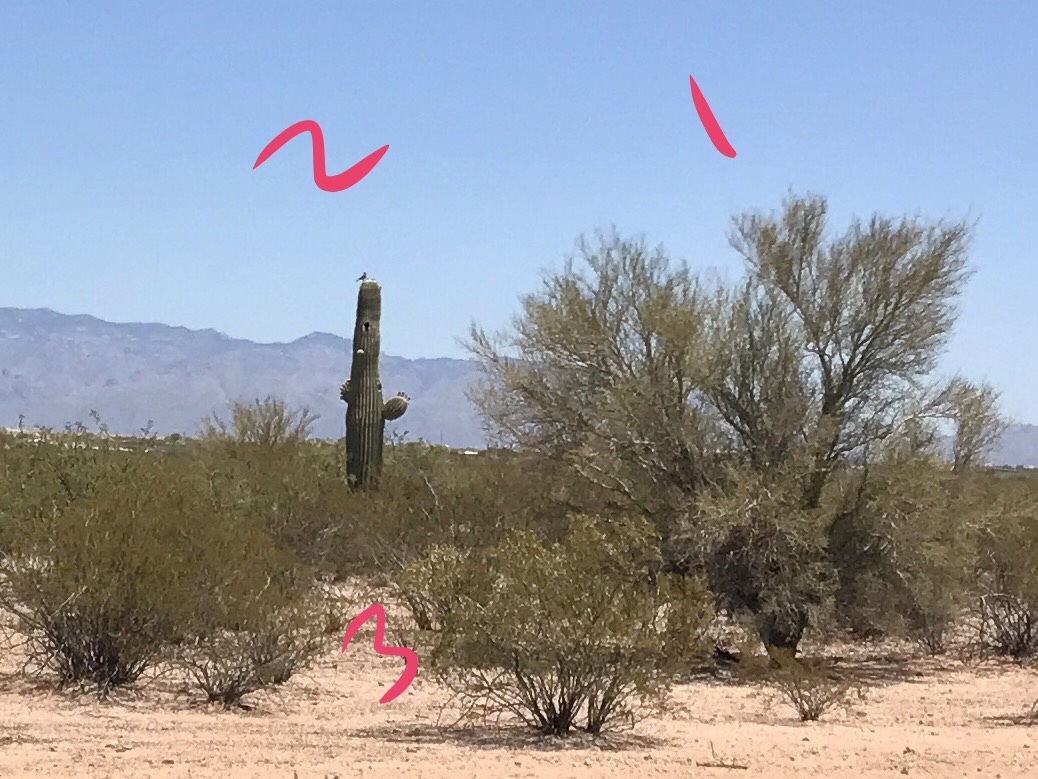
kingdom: Plantae
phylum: Tracheophyta
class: Magnoliopsida
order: Zygophyllales
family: Zygophyllaceae
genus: Larrea
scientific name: Larrea tridentata
